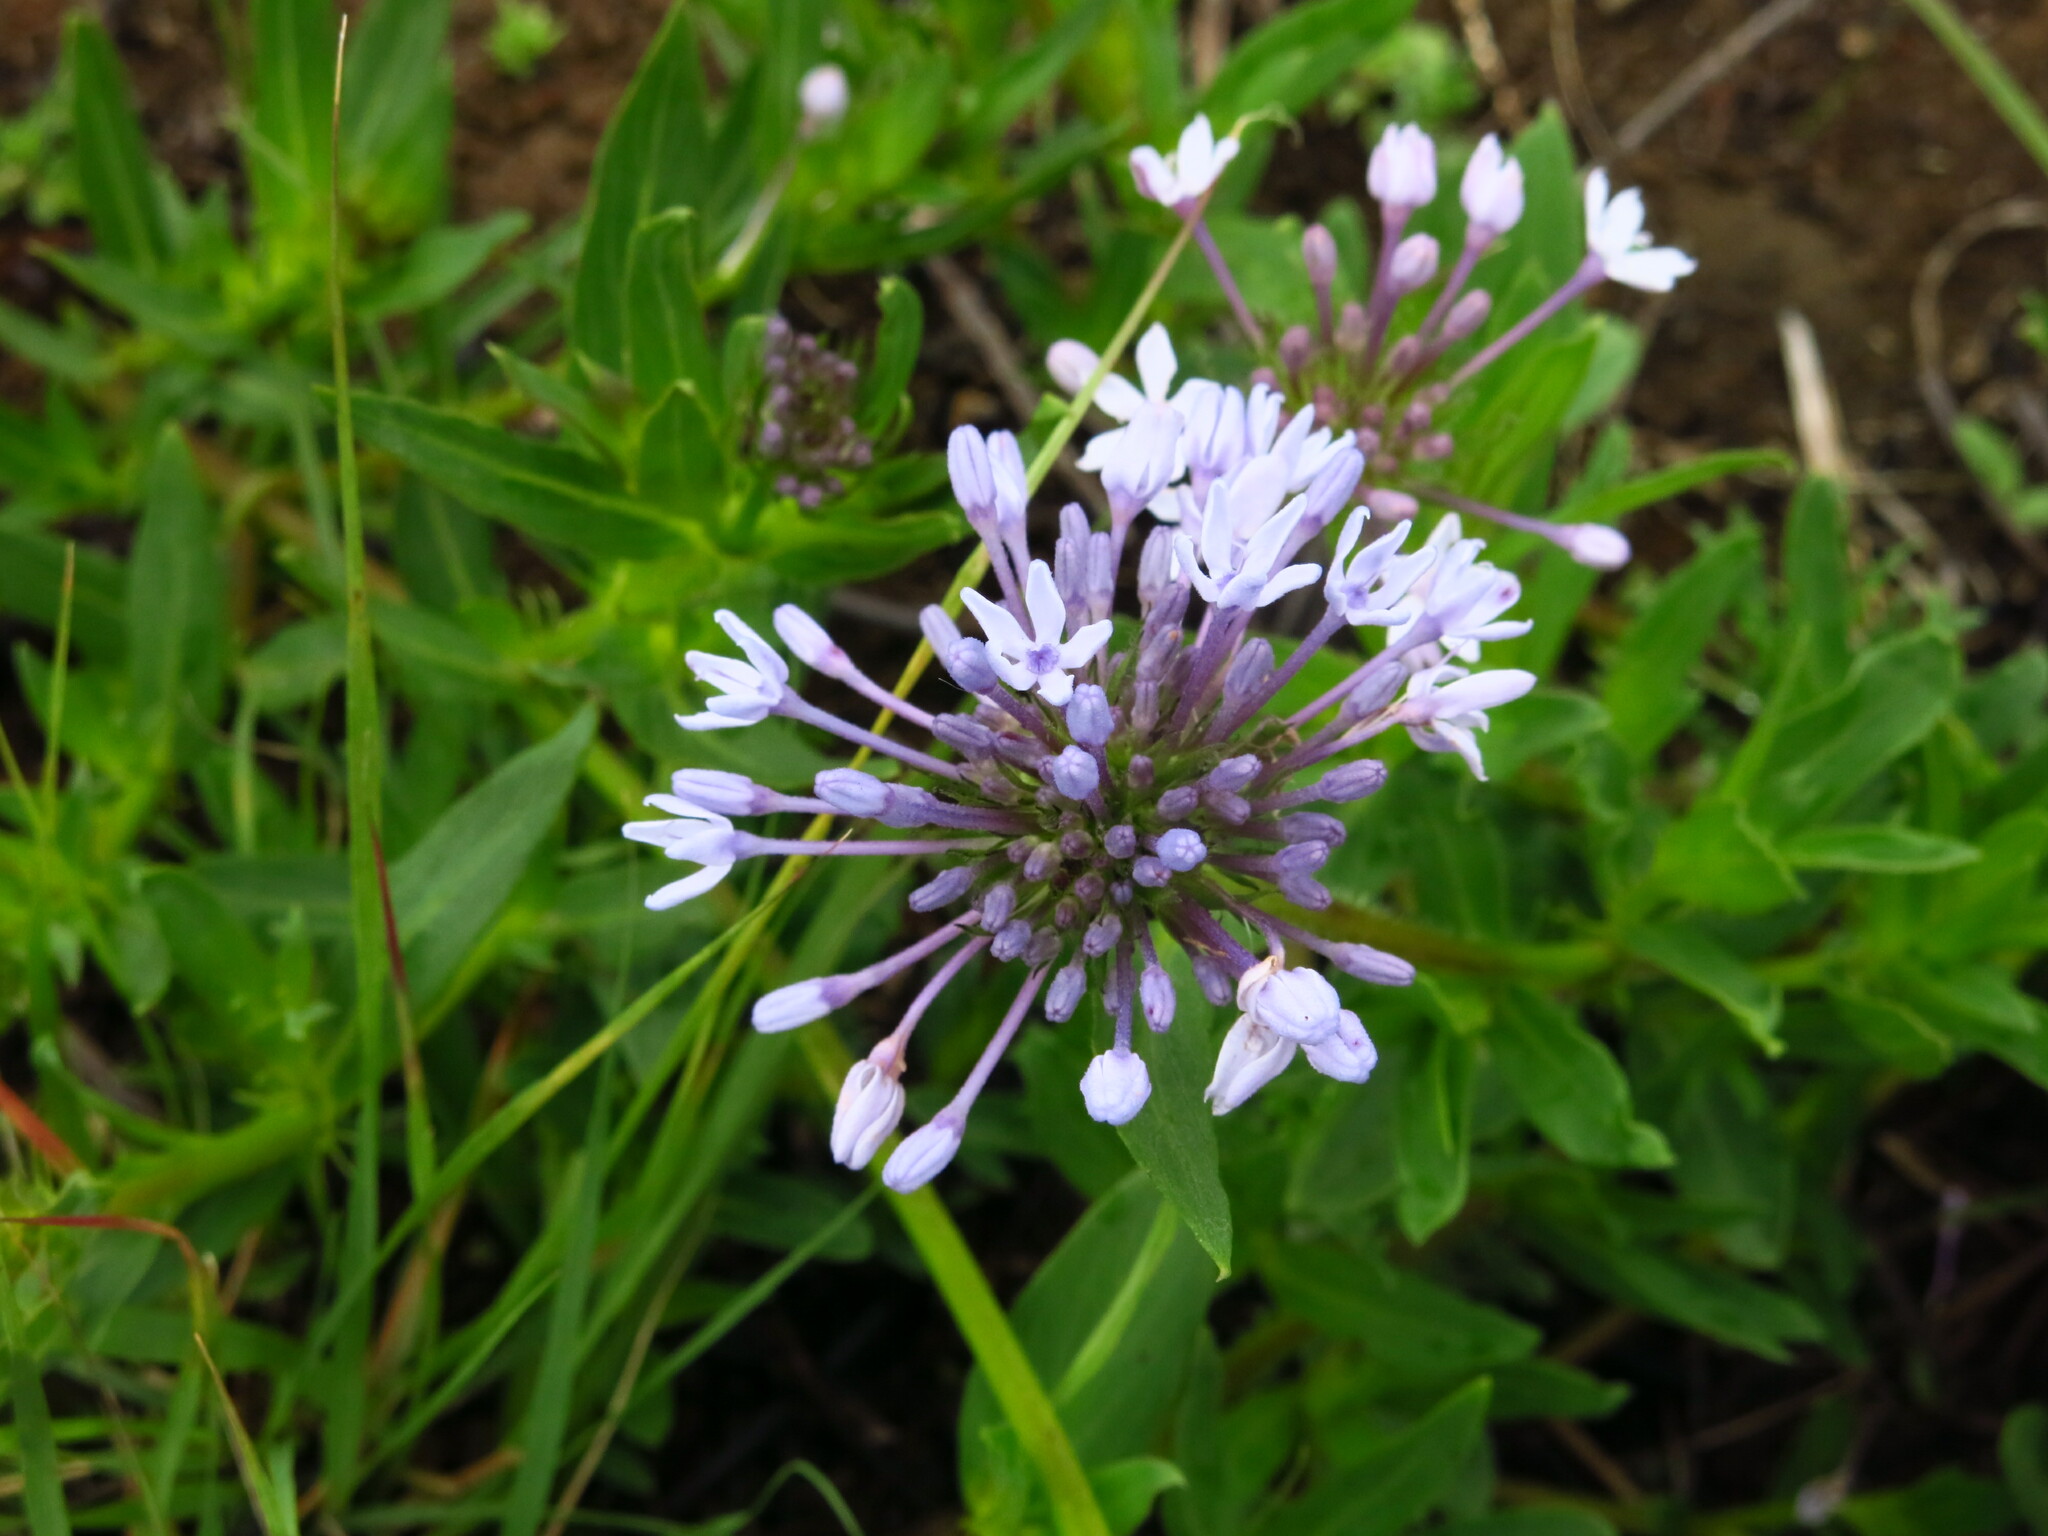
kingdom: Plantae
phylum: Tracheophyta
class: Magnoliopsida
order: Gentianales
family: Rubiaceae
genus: Pentanisia
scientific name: Pentanisia prunelloides
